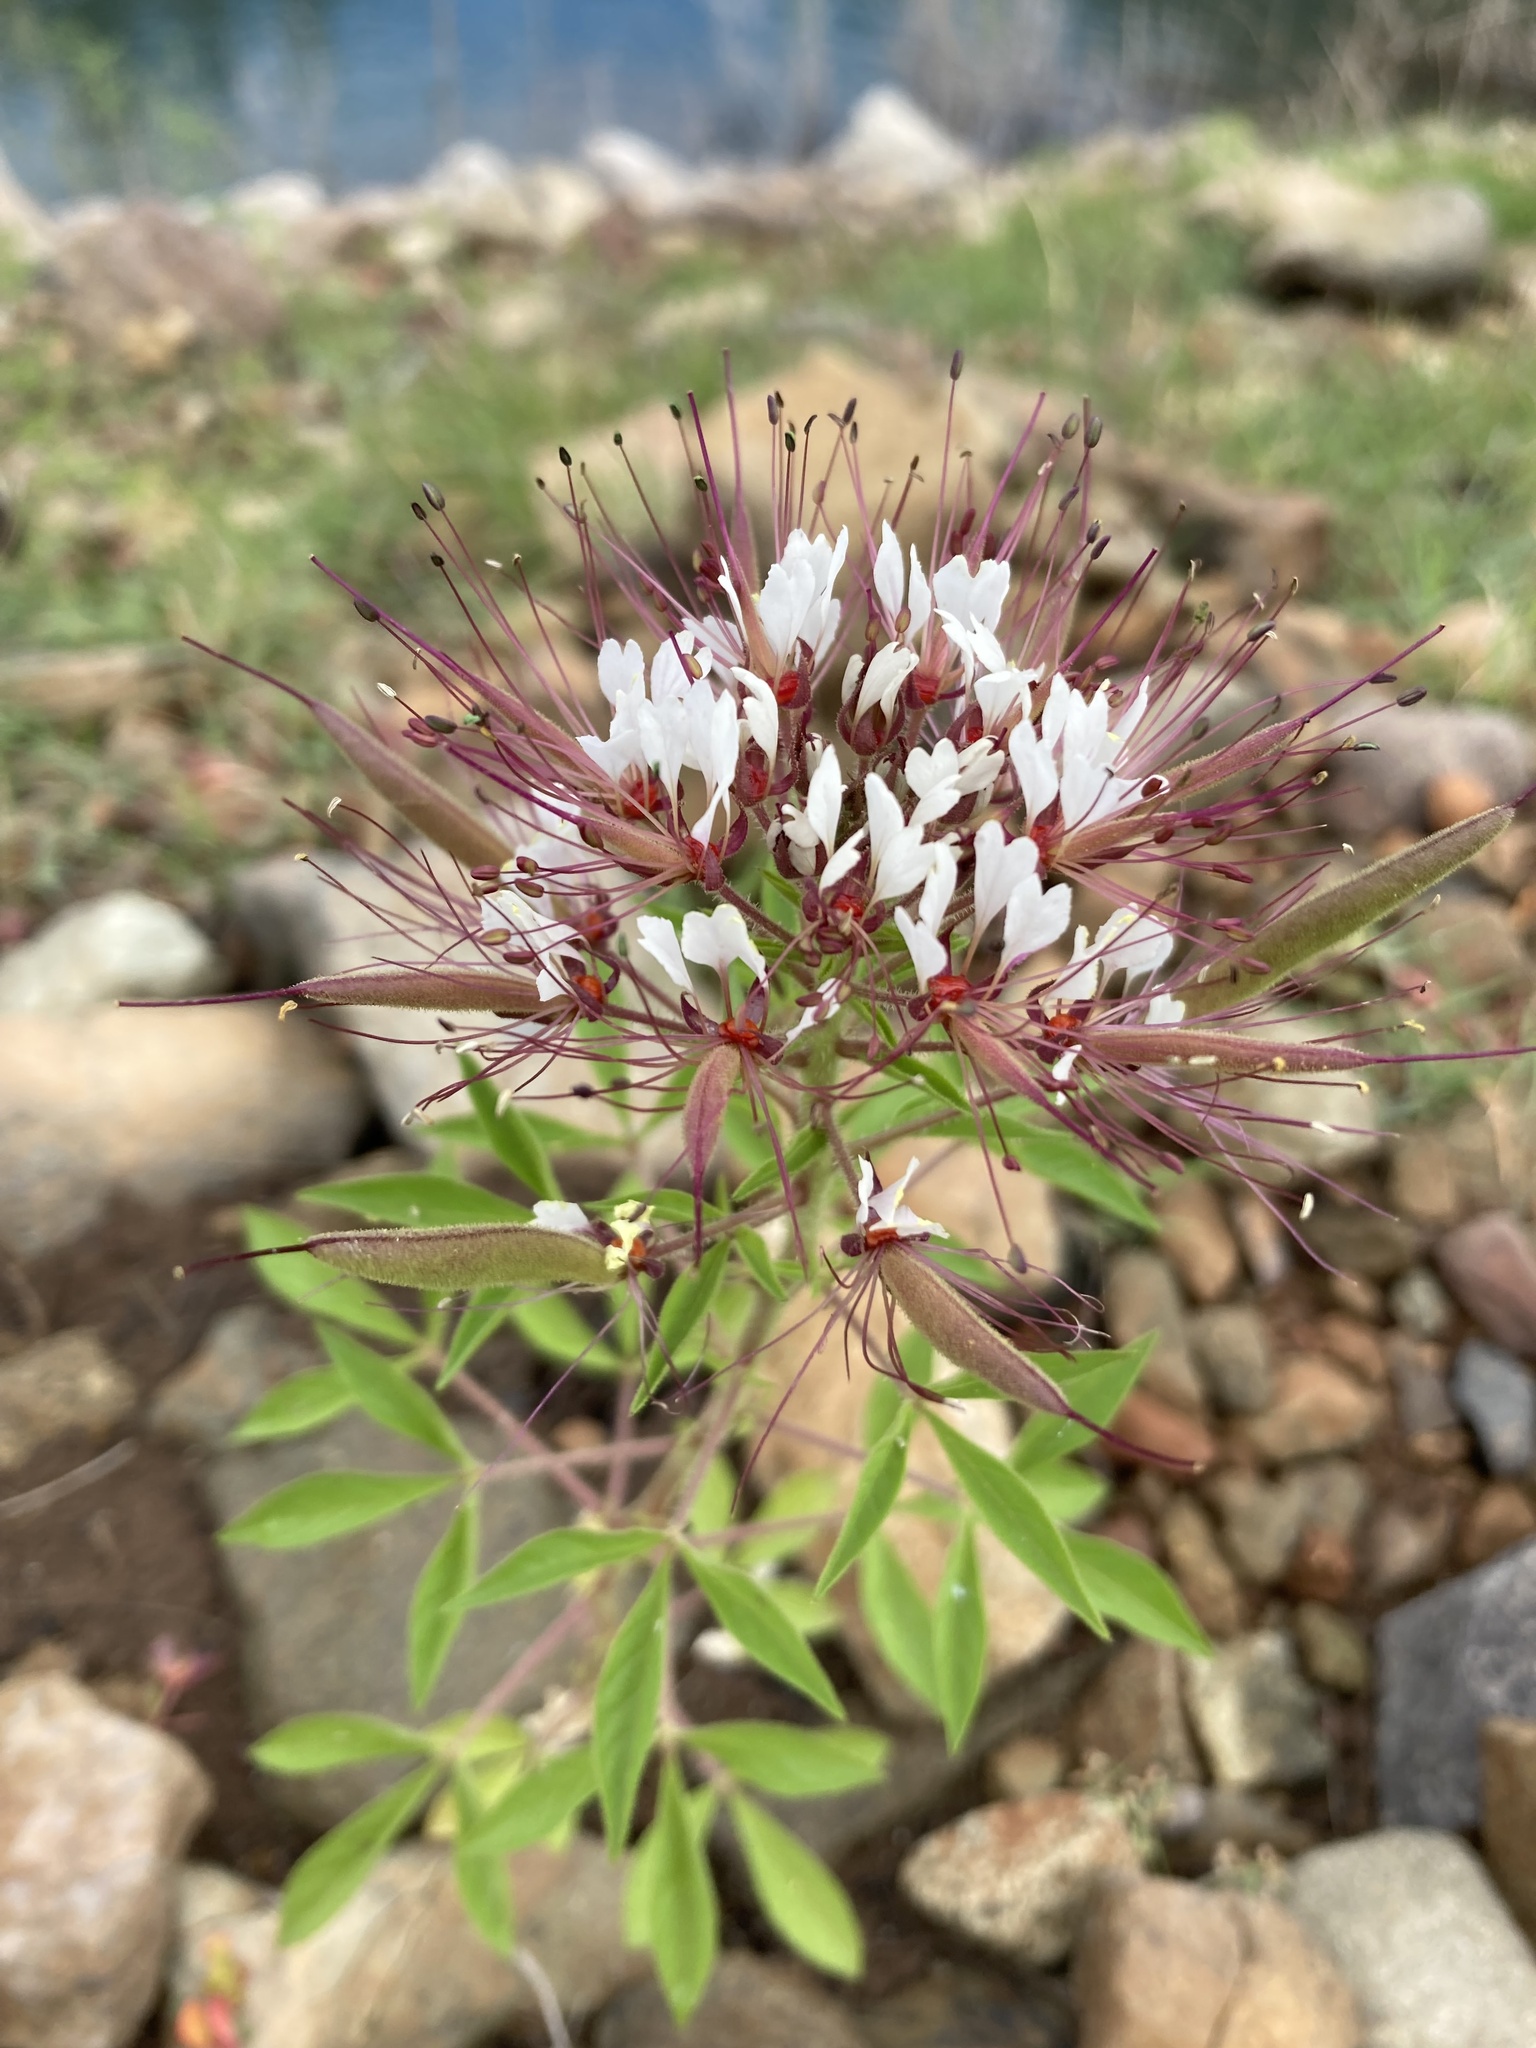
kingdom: Plantae
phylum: Tracheophyta
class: Magnoliopsida
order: Brassicales
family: Cleomaceae
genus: Polanisia
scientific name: Polanisia dodecandra
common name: Clammyweed
